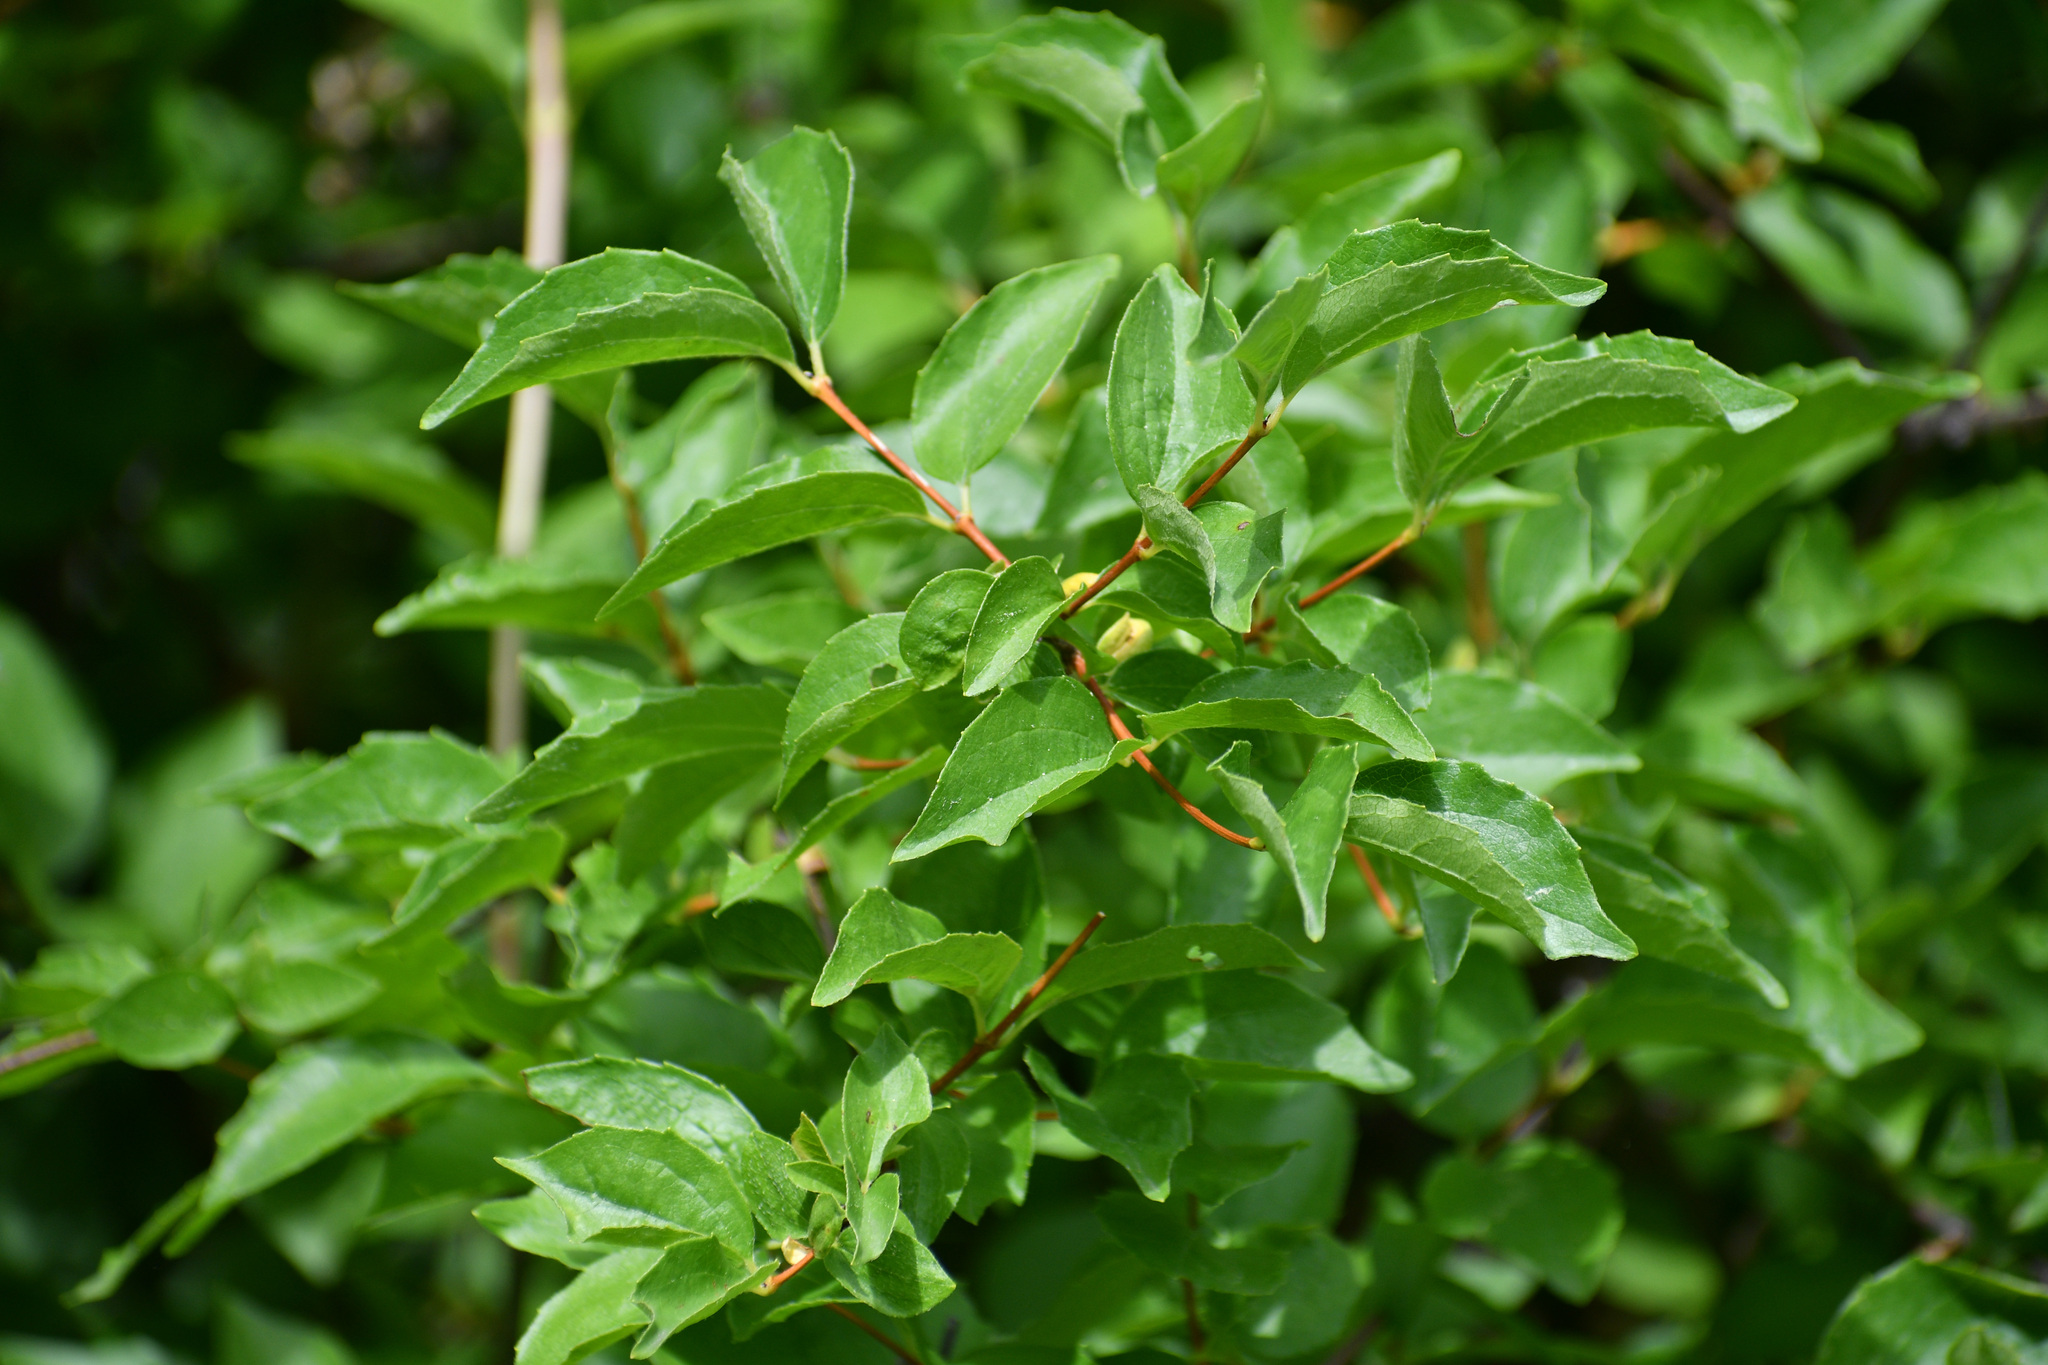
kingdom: Plantae
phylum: Tracheophyta
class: Magnoliopsida
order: Cornales
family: Hydrangeaceae
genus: Philadelphus
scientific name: Philadelphus lewisii
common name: Lewis's mock orange
